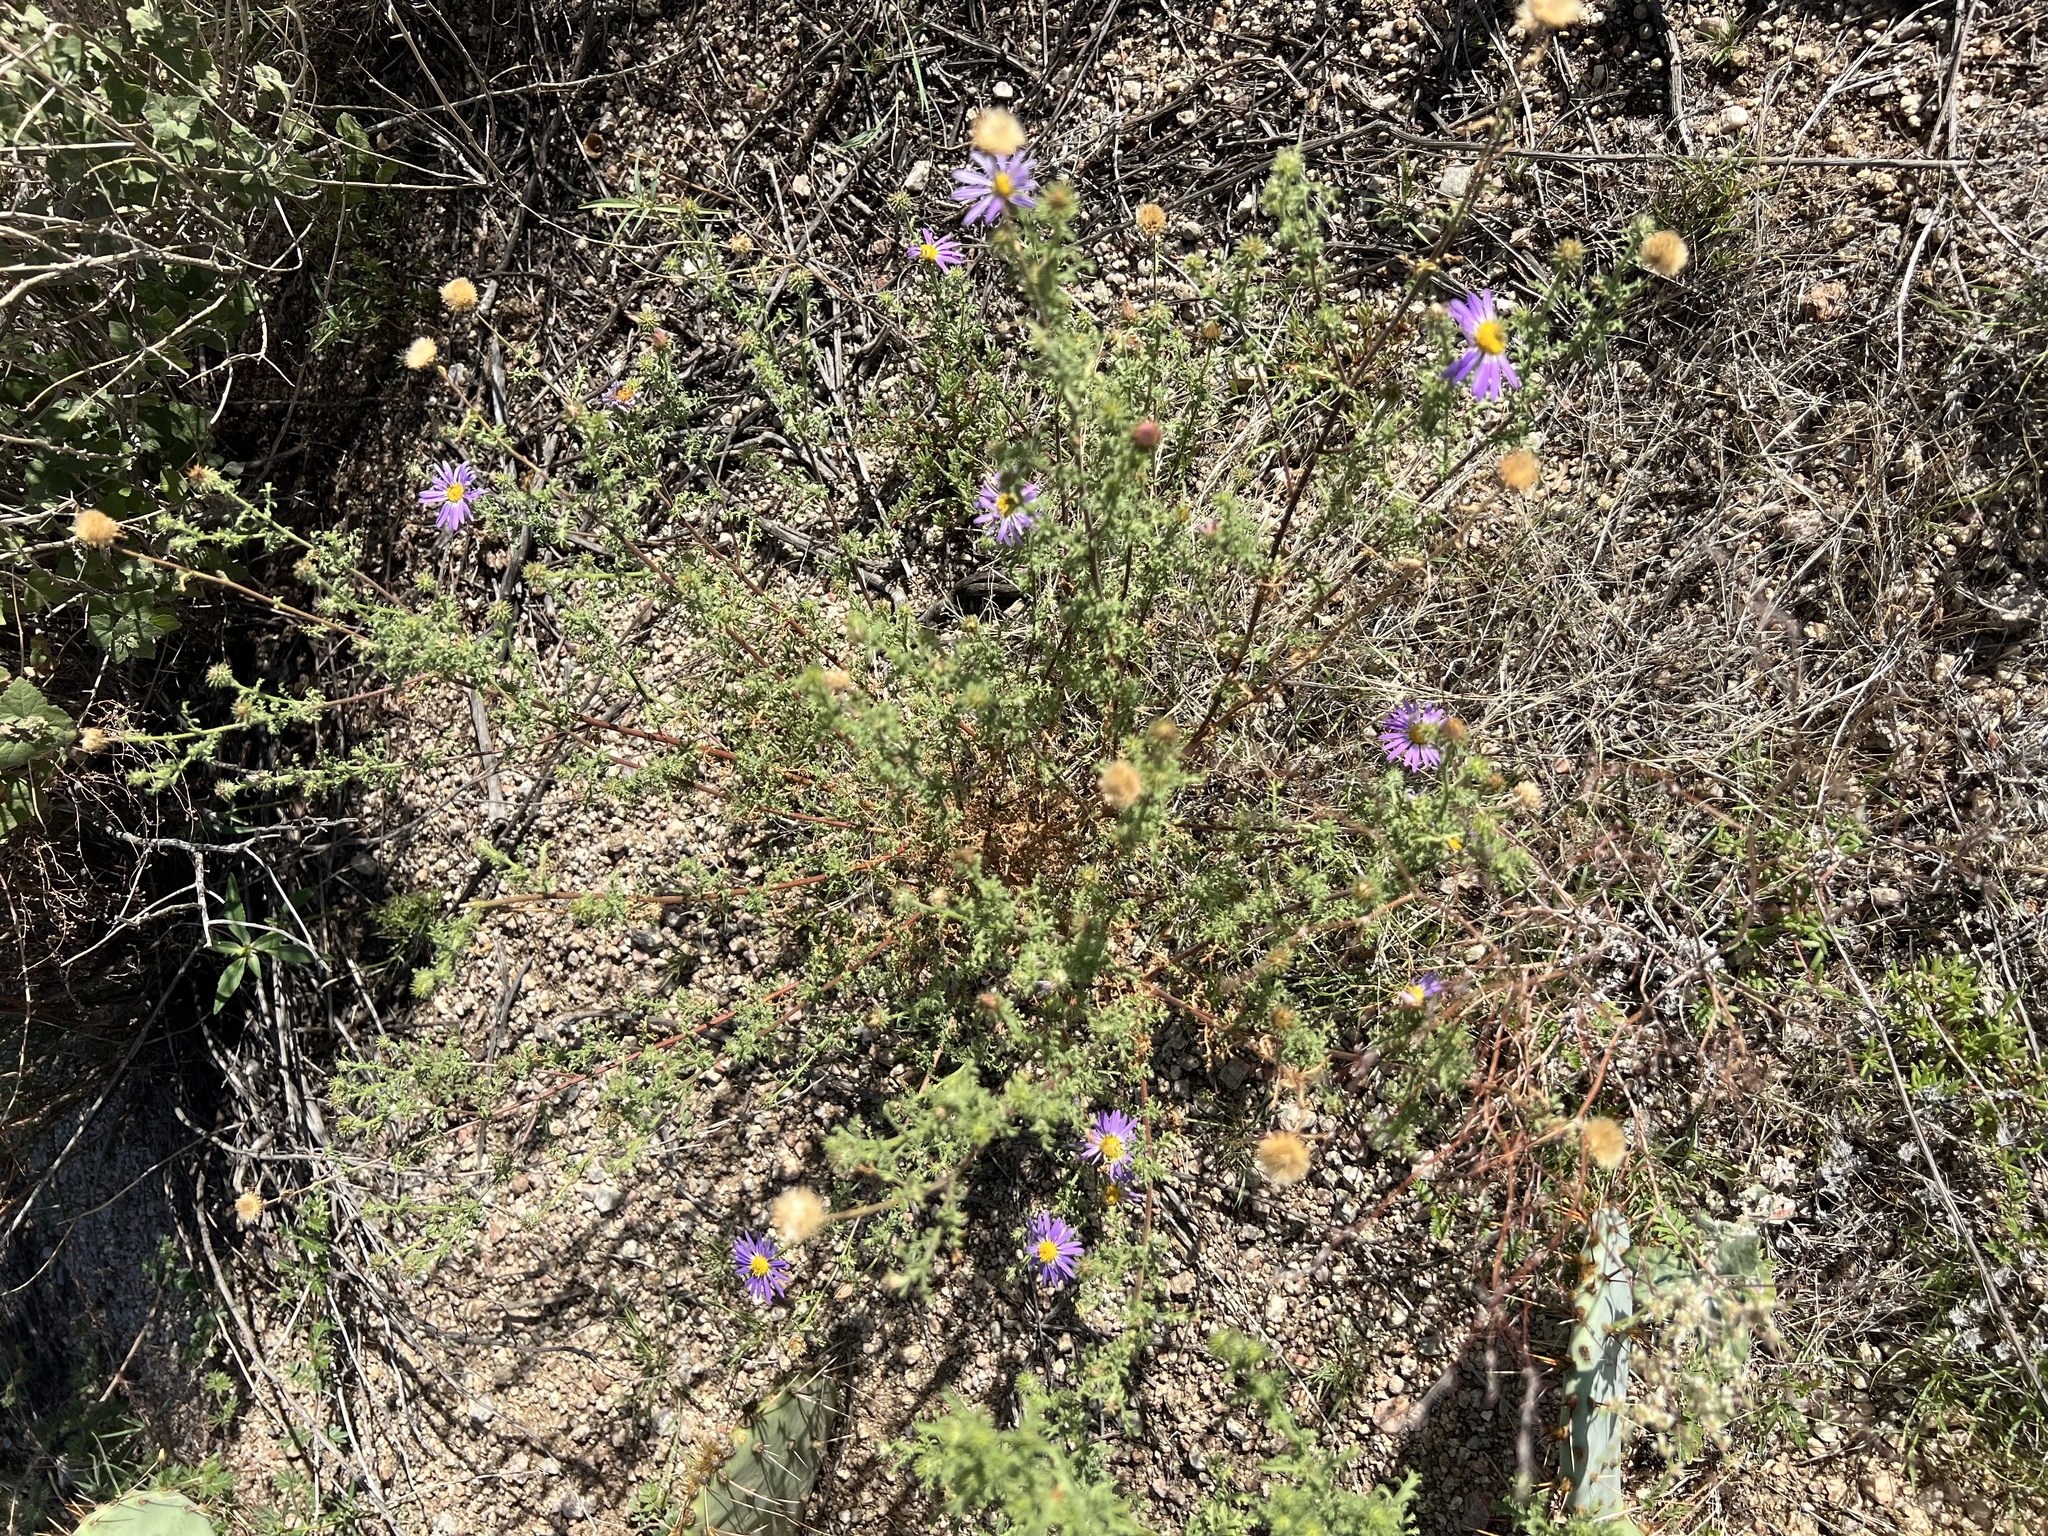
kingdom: Plantae
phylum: Tracheophyta
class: Magnoliopsida
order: Asterales
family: Asteraceae
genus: Machaeranthera
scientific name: Machaeranthera tanacetifolia
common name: Tansy-aster
